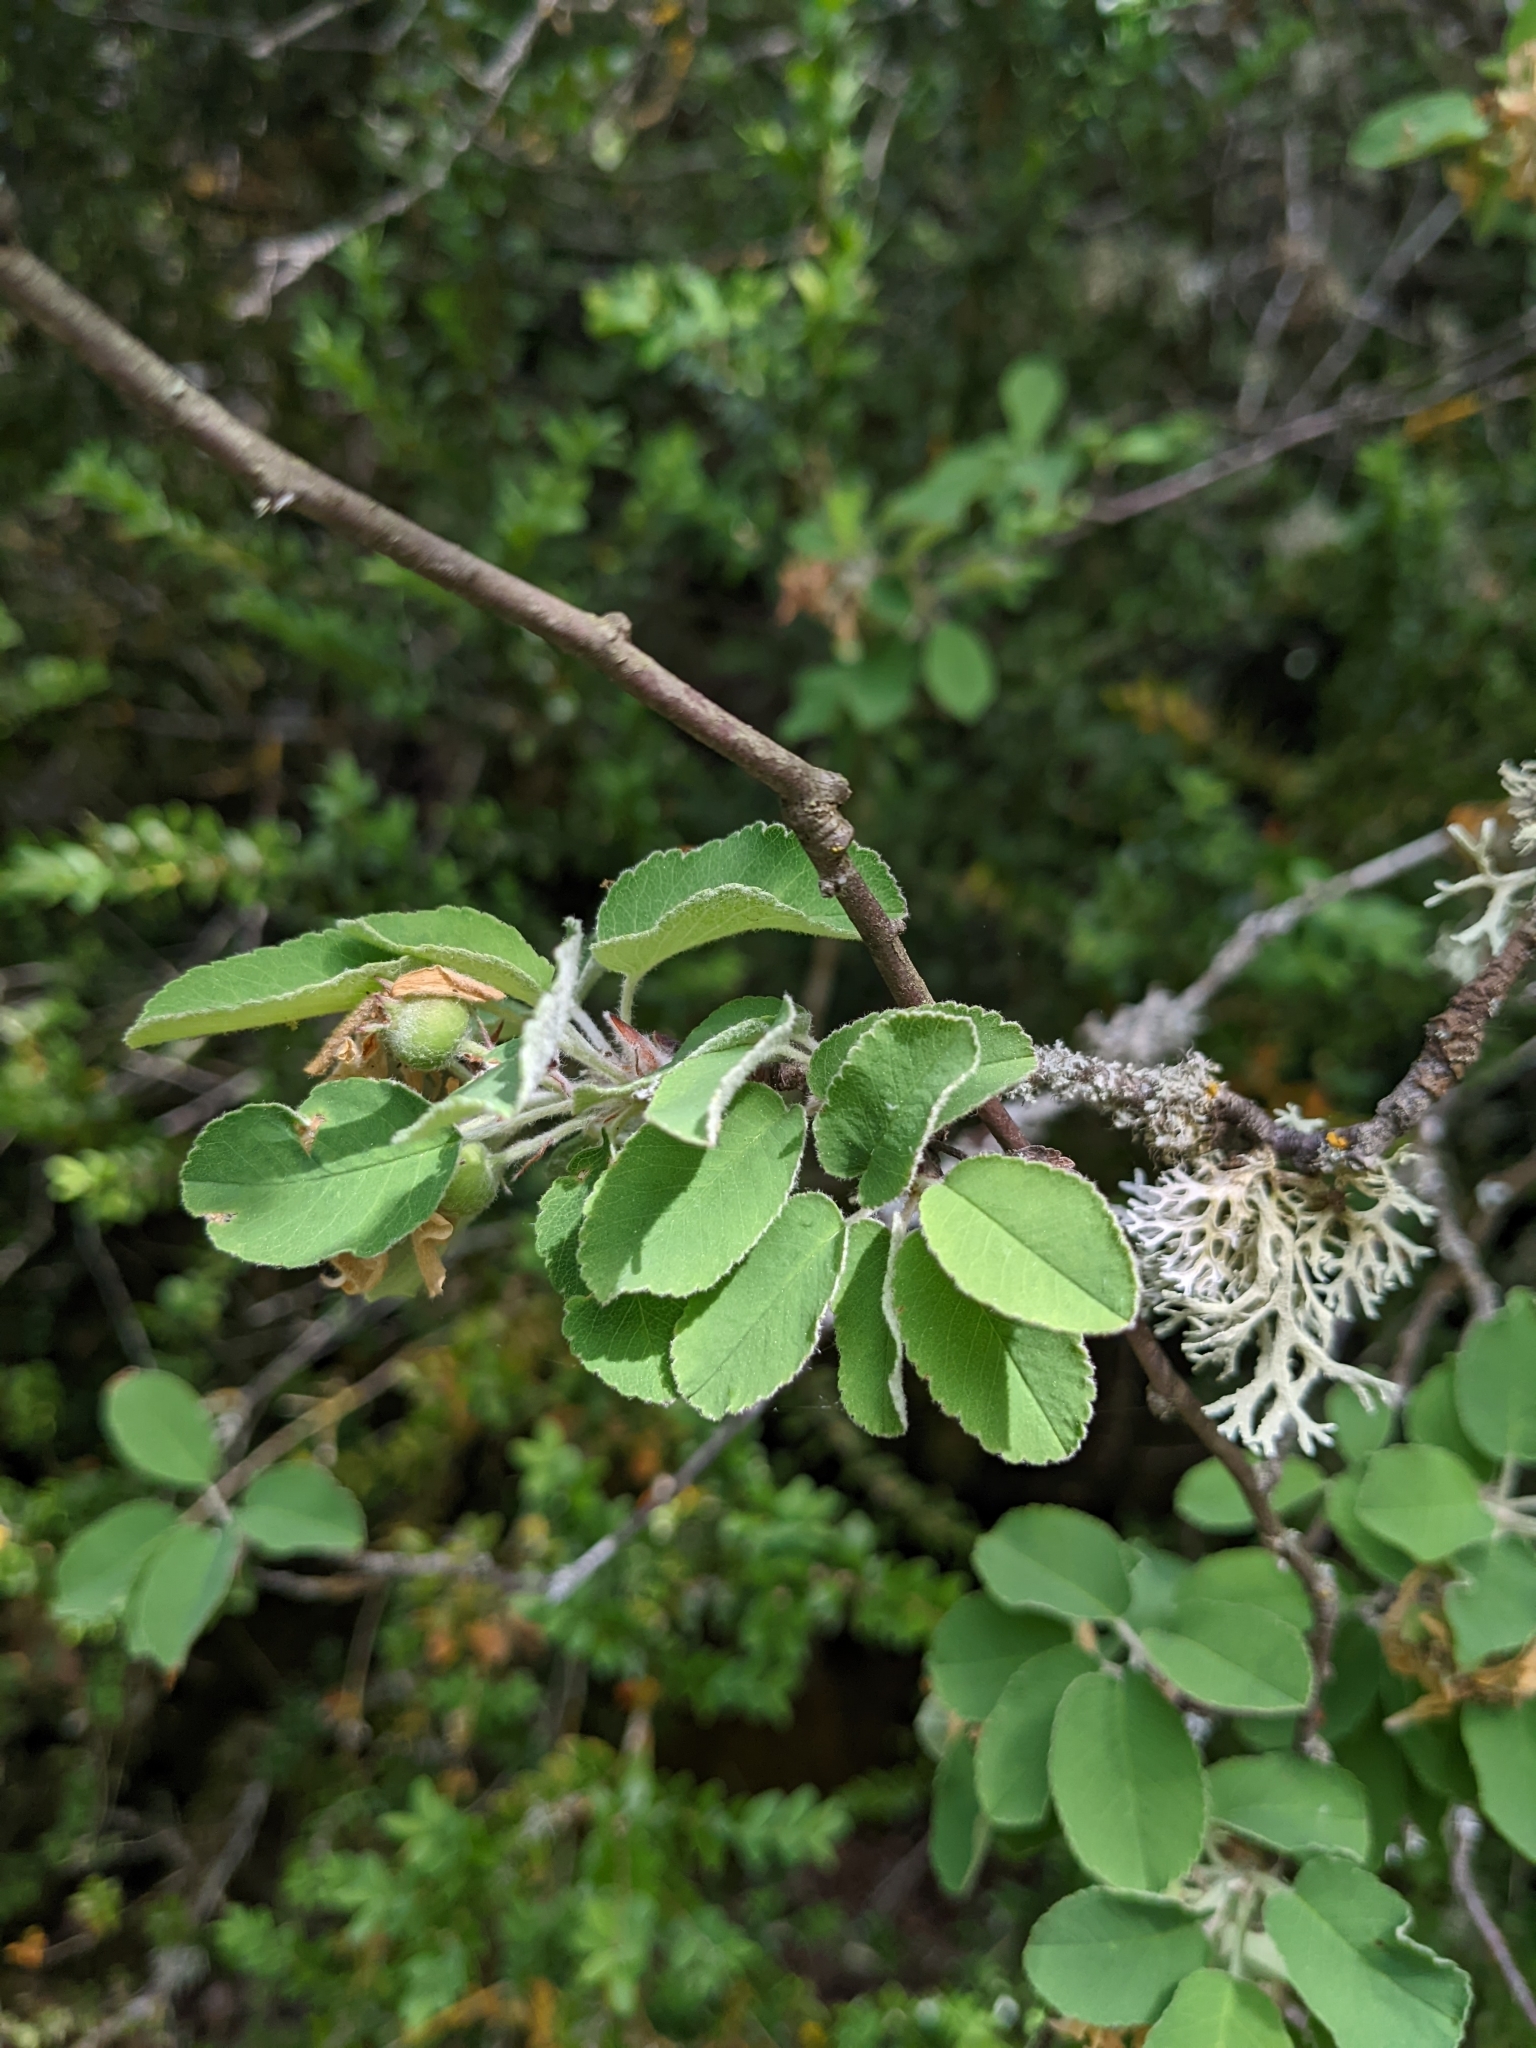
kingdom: Plantae
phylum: Tracheophyta
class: Magnoliopsida
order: Rosales
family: Rosaceae
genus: Amelanchier
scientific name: Amelanchier ovalis
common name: Serviceberry
